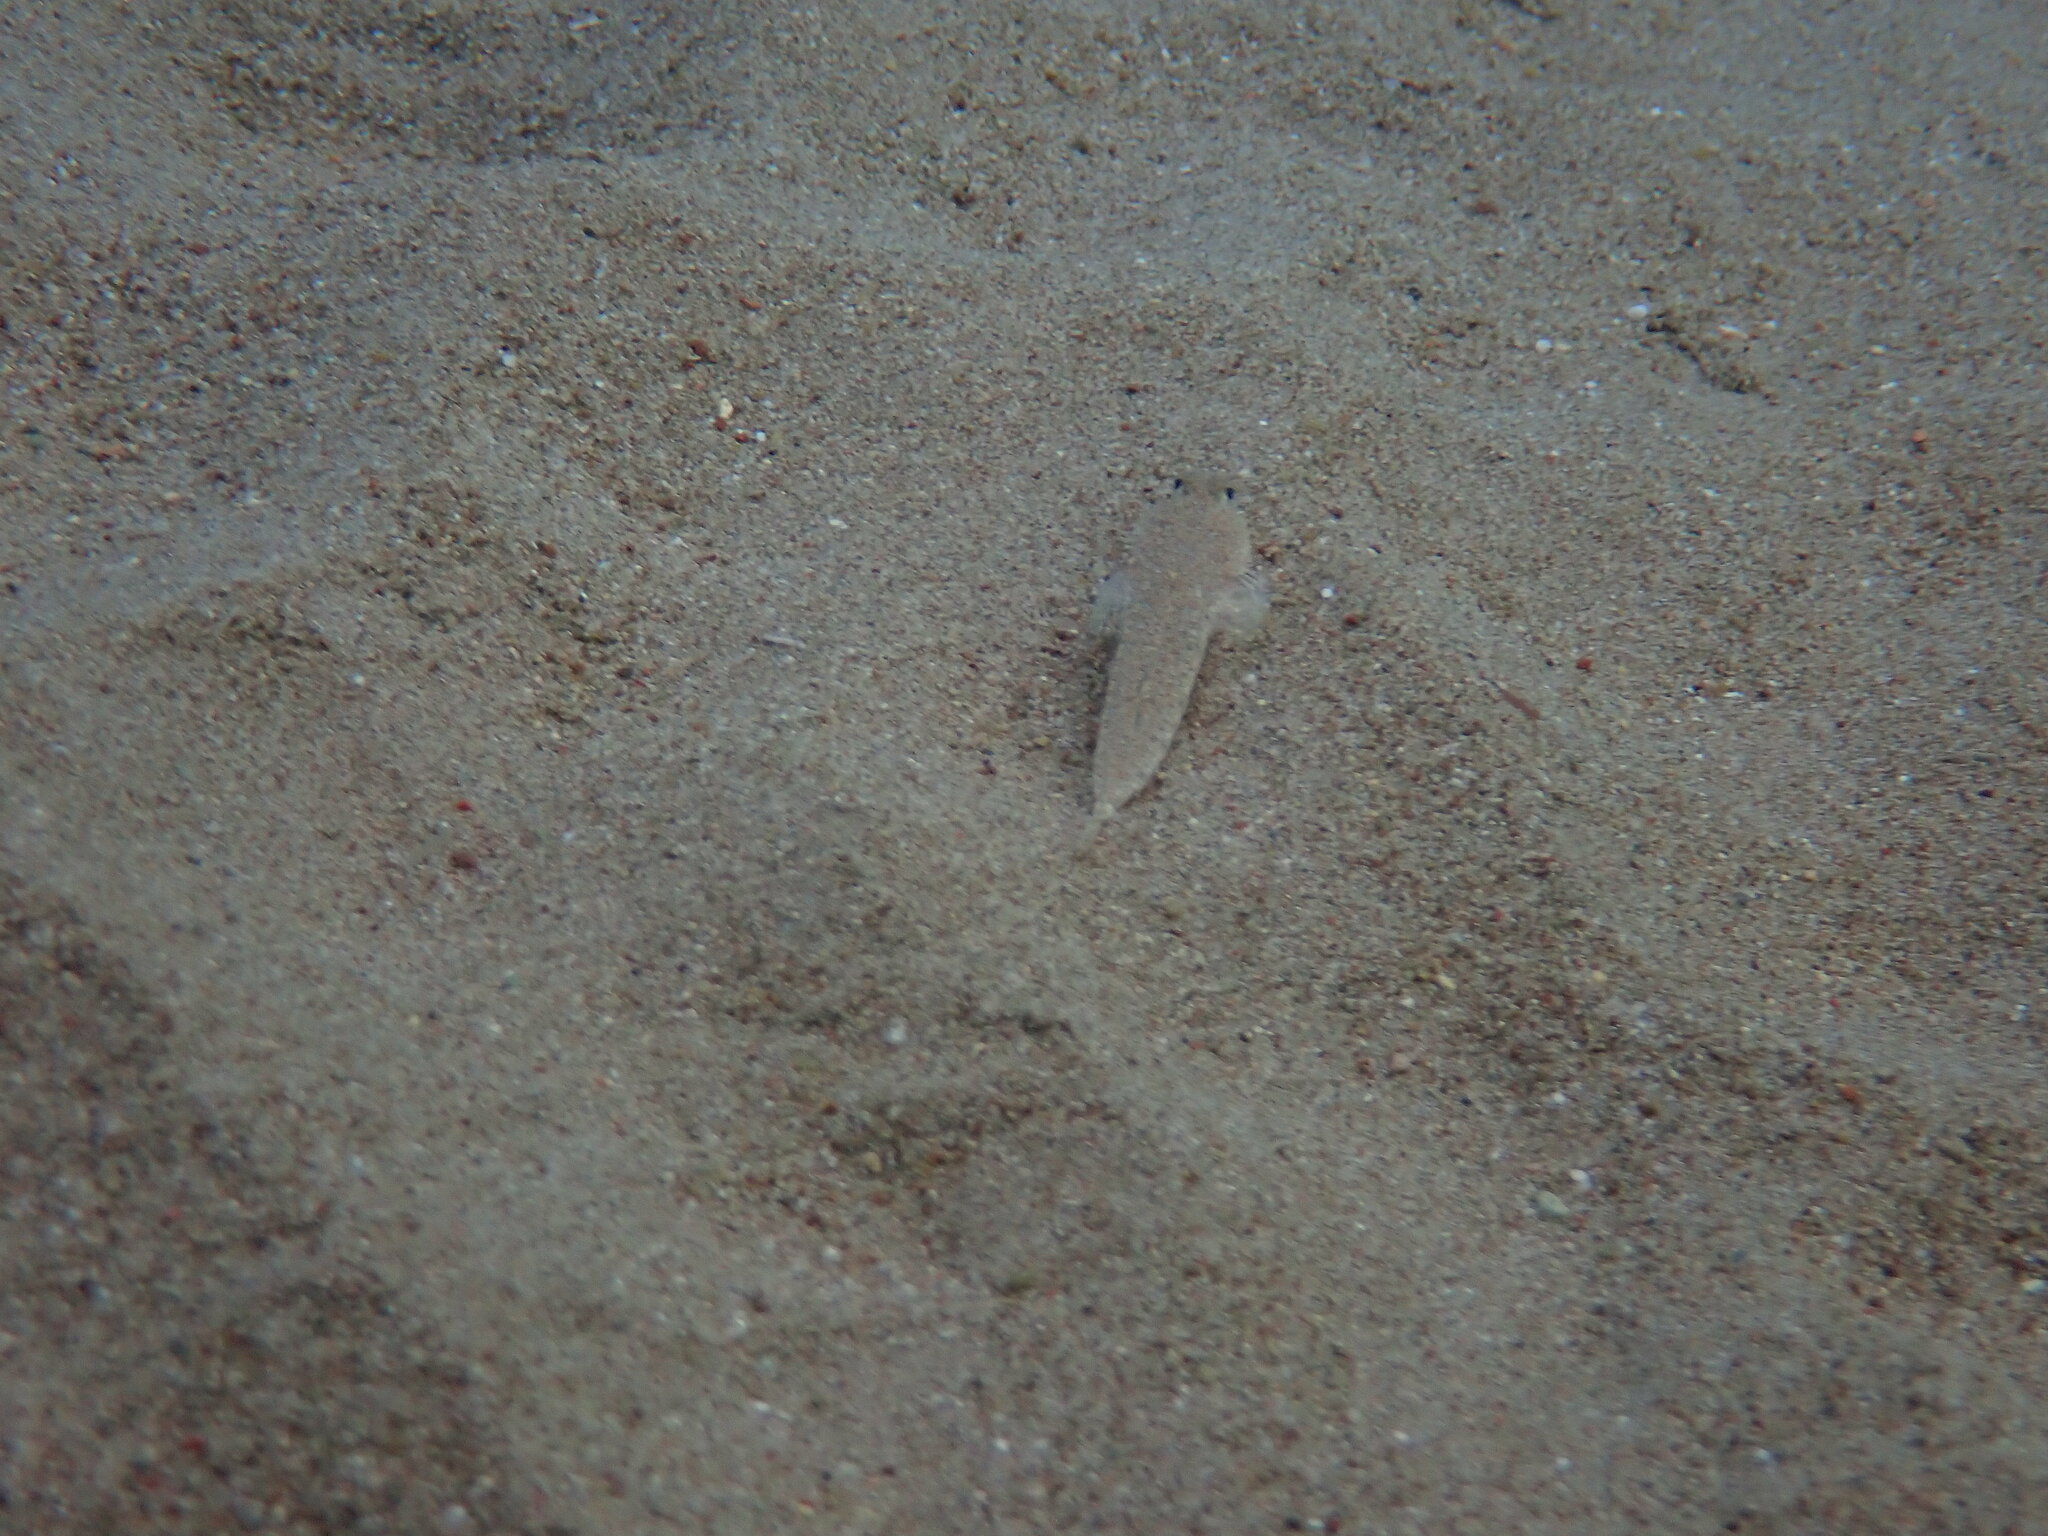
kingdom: Animalia
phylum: Chordata
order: Perciformes
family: Callionymidae
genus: Callionymus
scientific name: Callionymus
